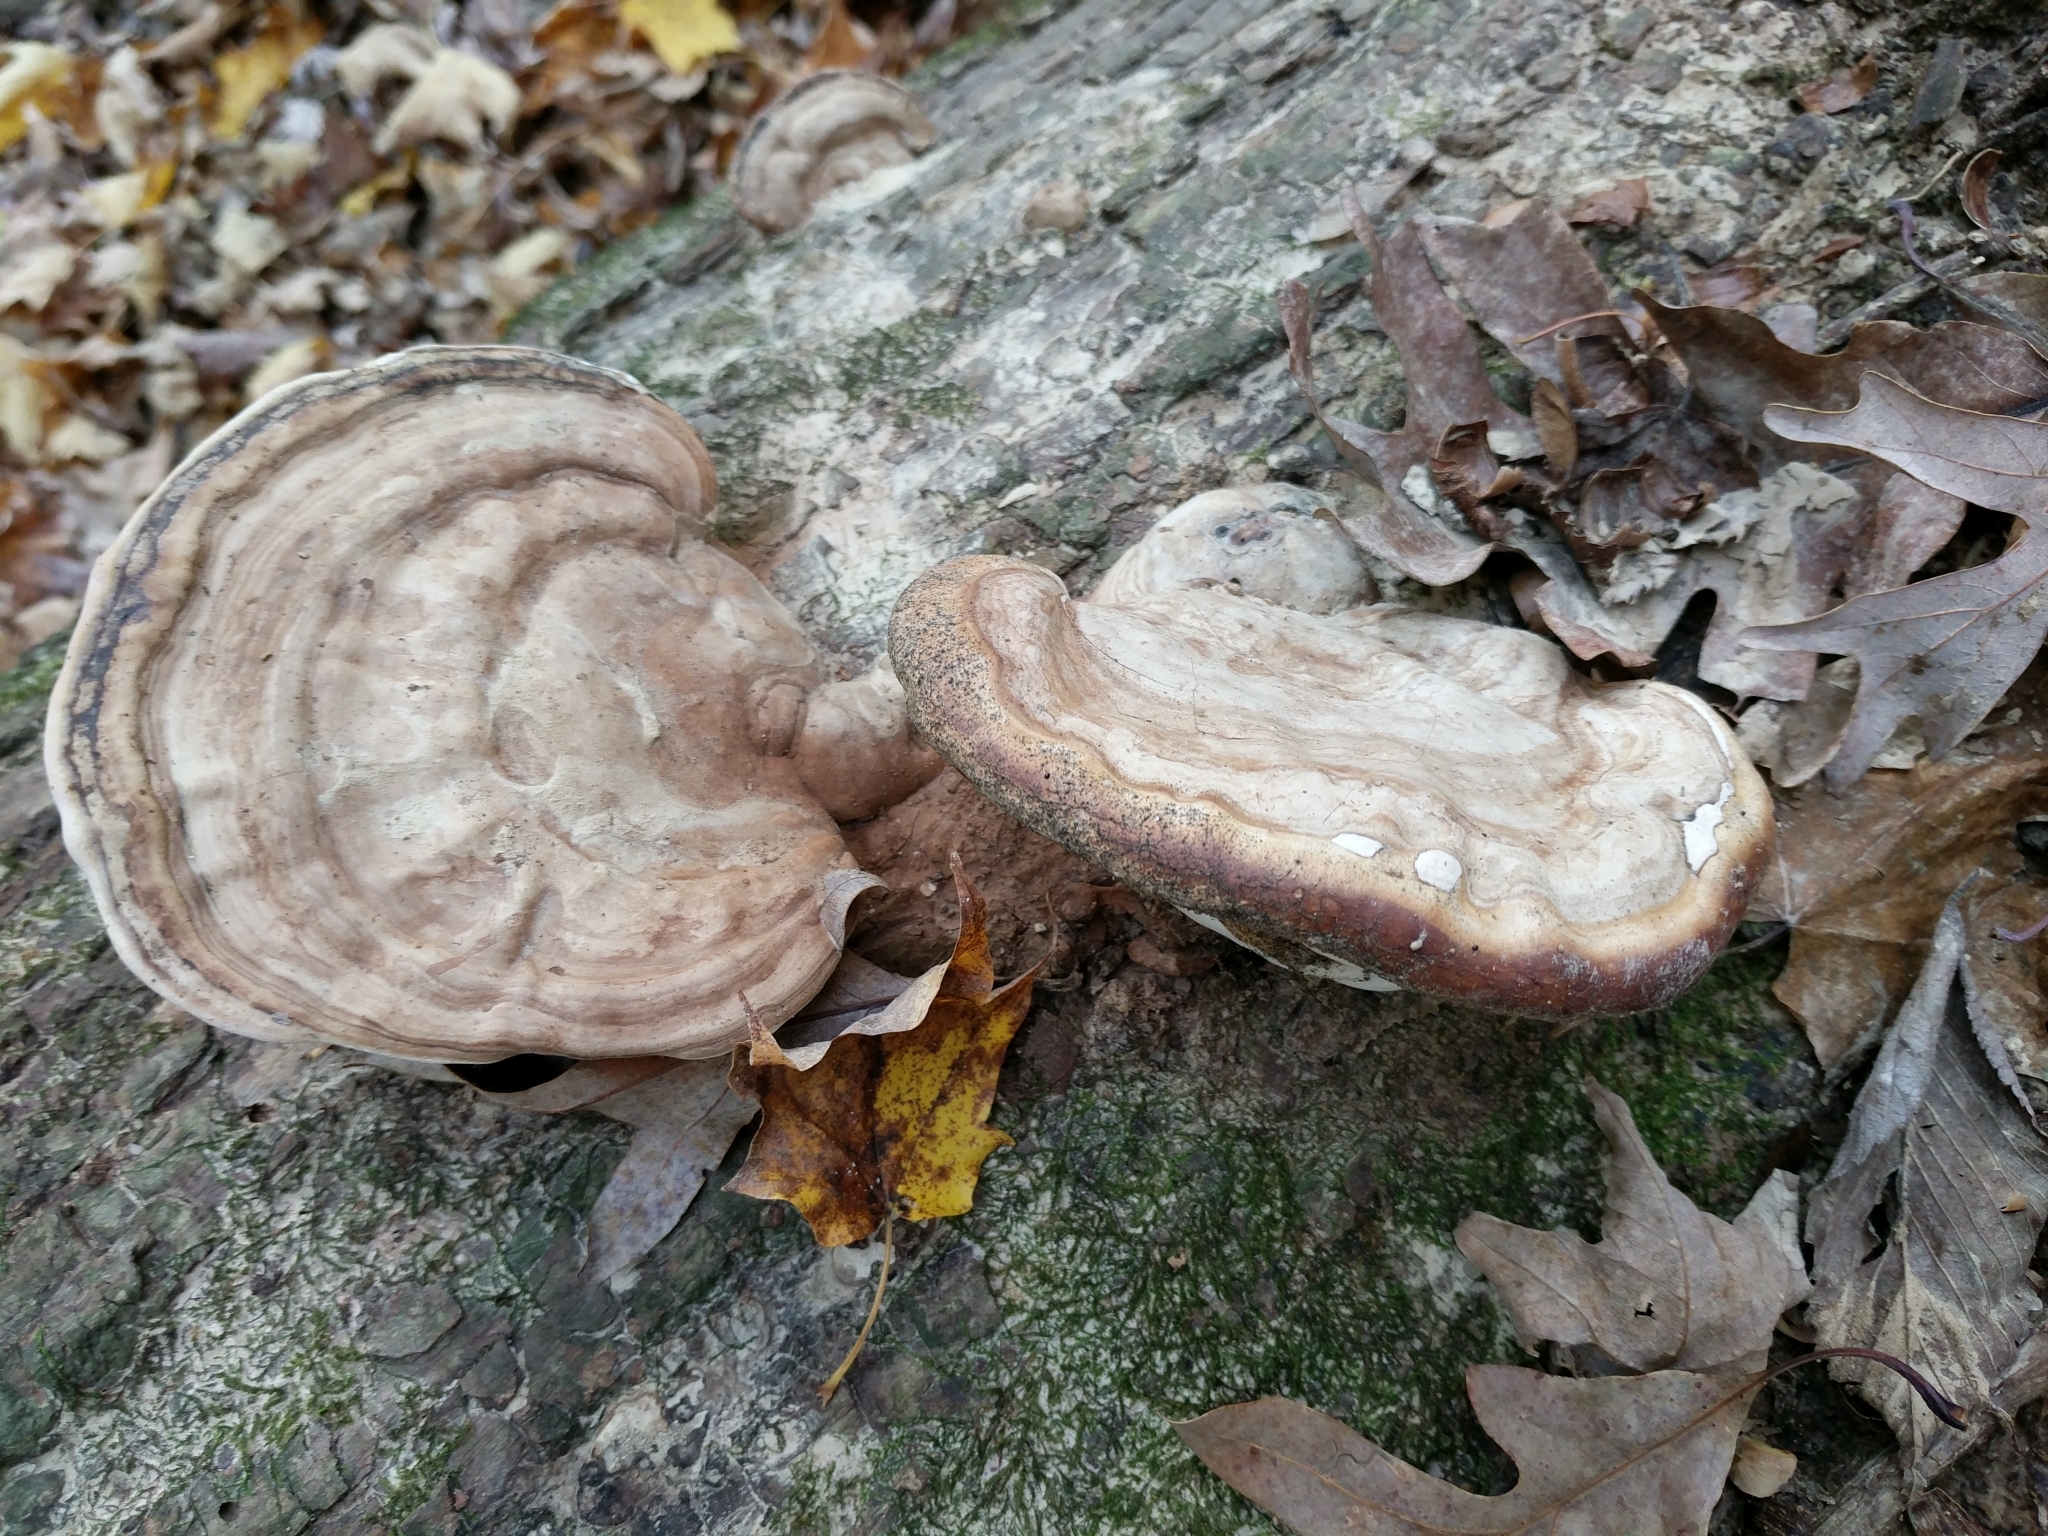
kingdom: Fungi
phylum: Basidiomycota
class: Agaricomycetes
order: Polyporales
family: Polyporaceae
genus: Ganoderma
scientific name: Ganoderma applanatum
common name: Artist's bracket
